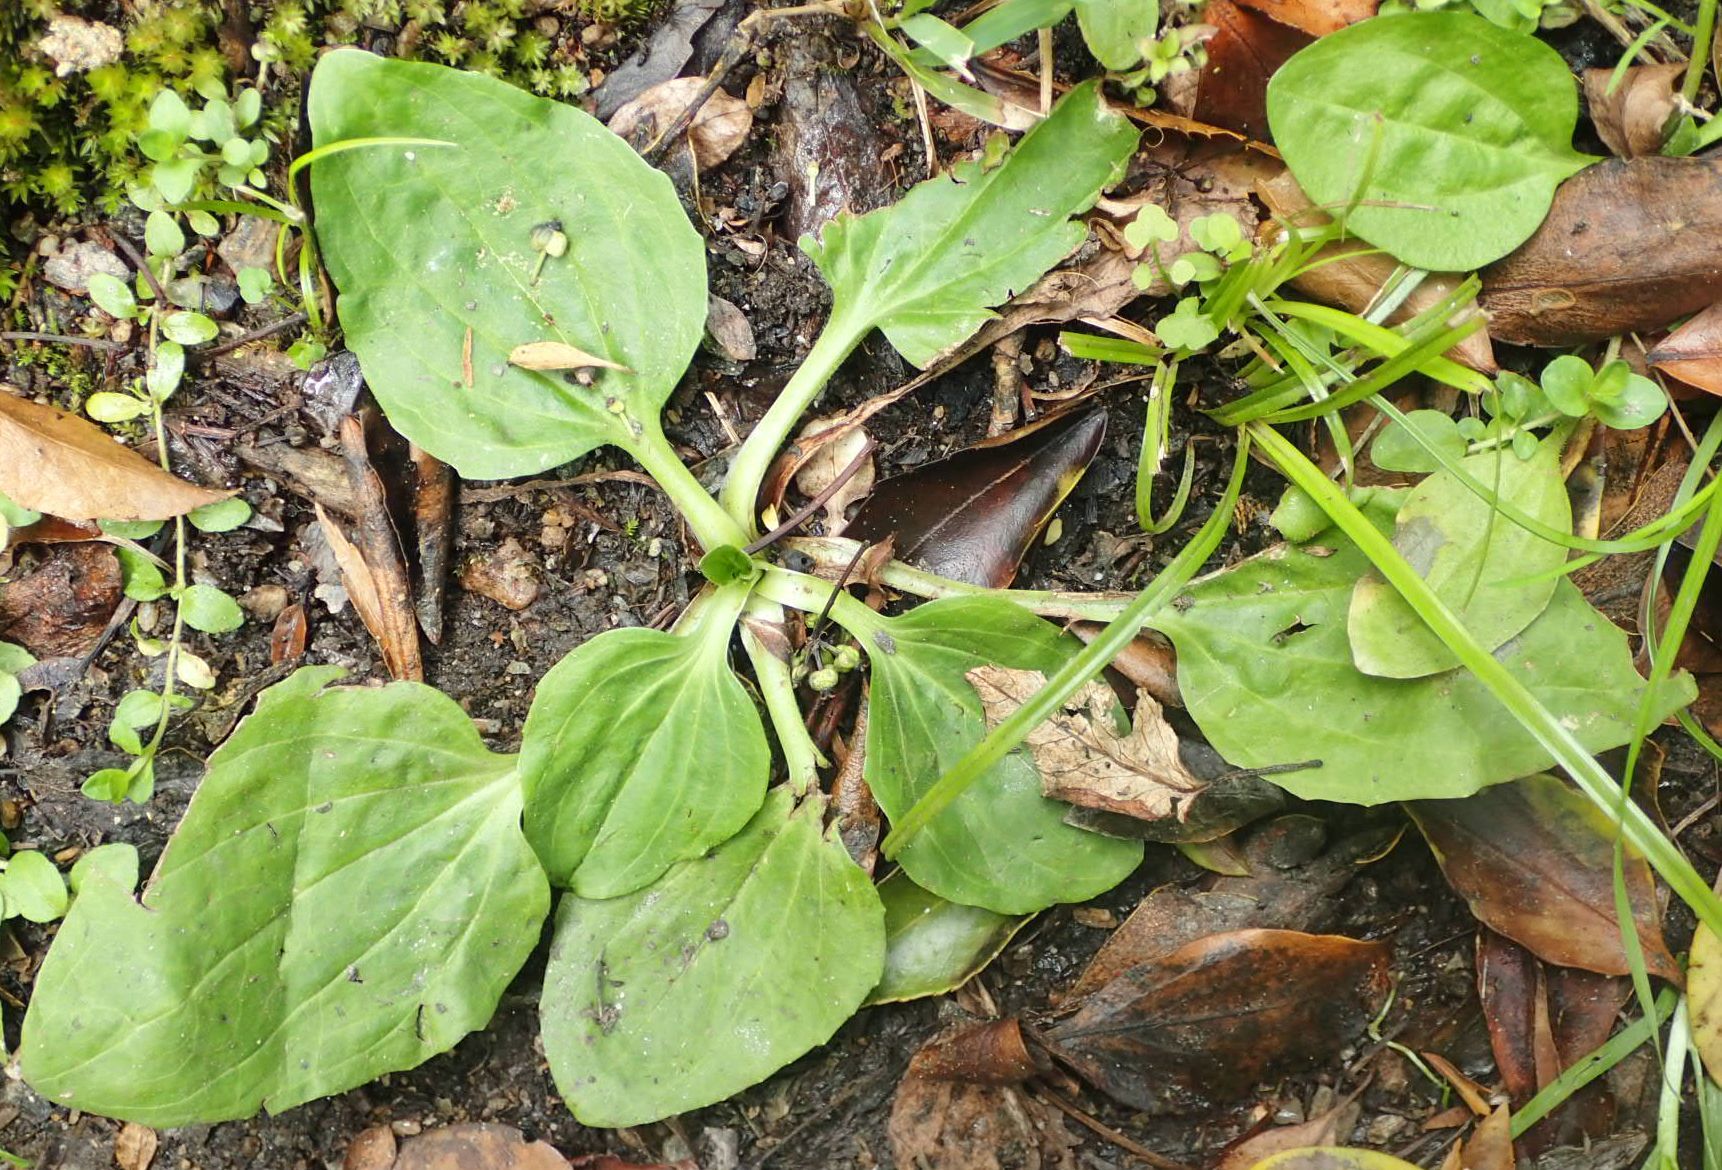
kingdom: Plantae
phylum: Tracheophyta
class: Magnoliopsida
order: Lamiales
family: Plantaginaceae
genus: Plantago
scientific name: Plantago major
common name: Common plantain
